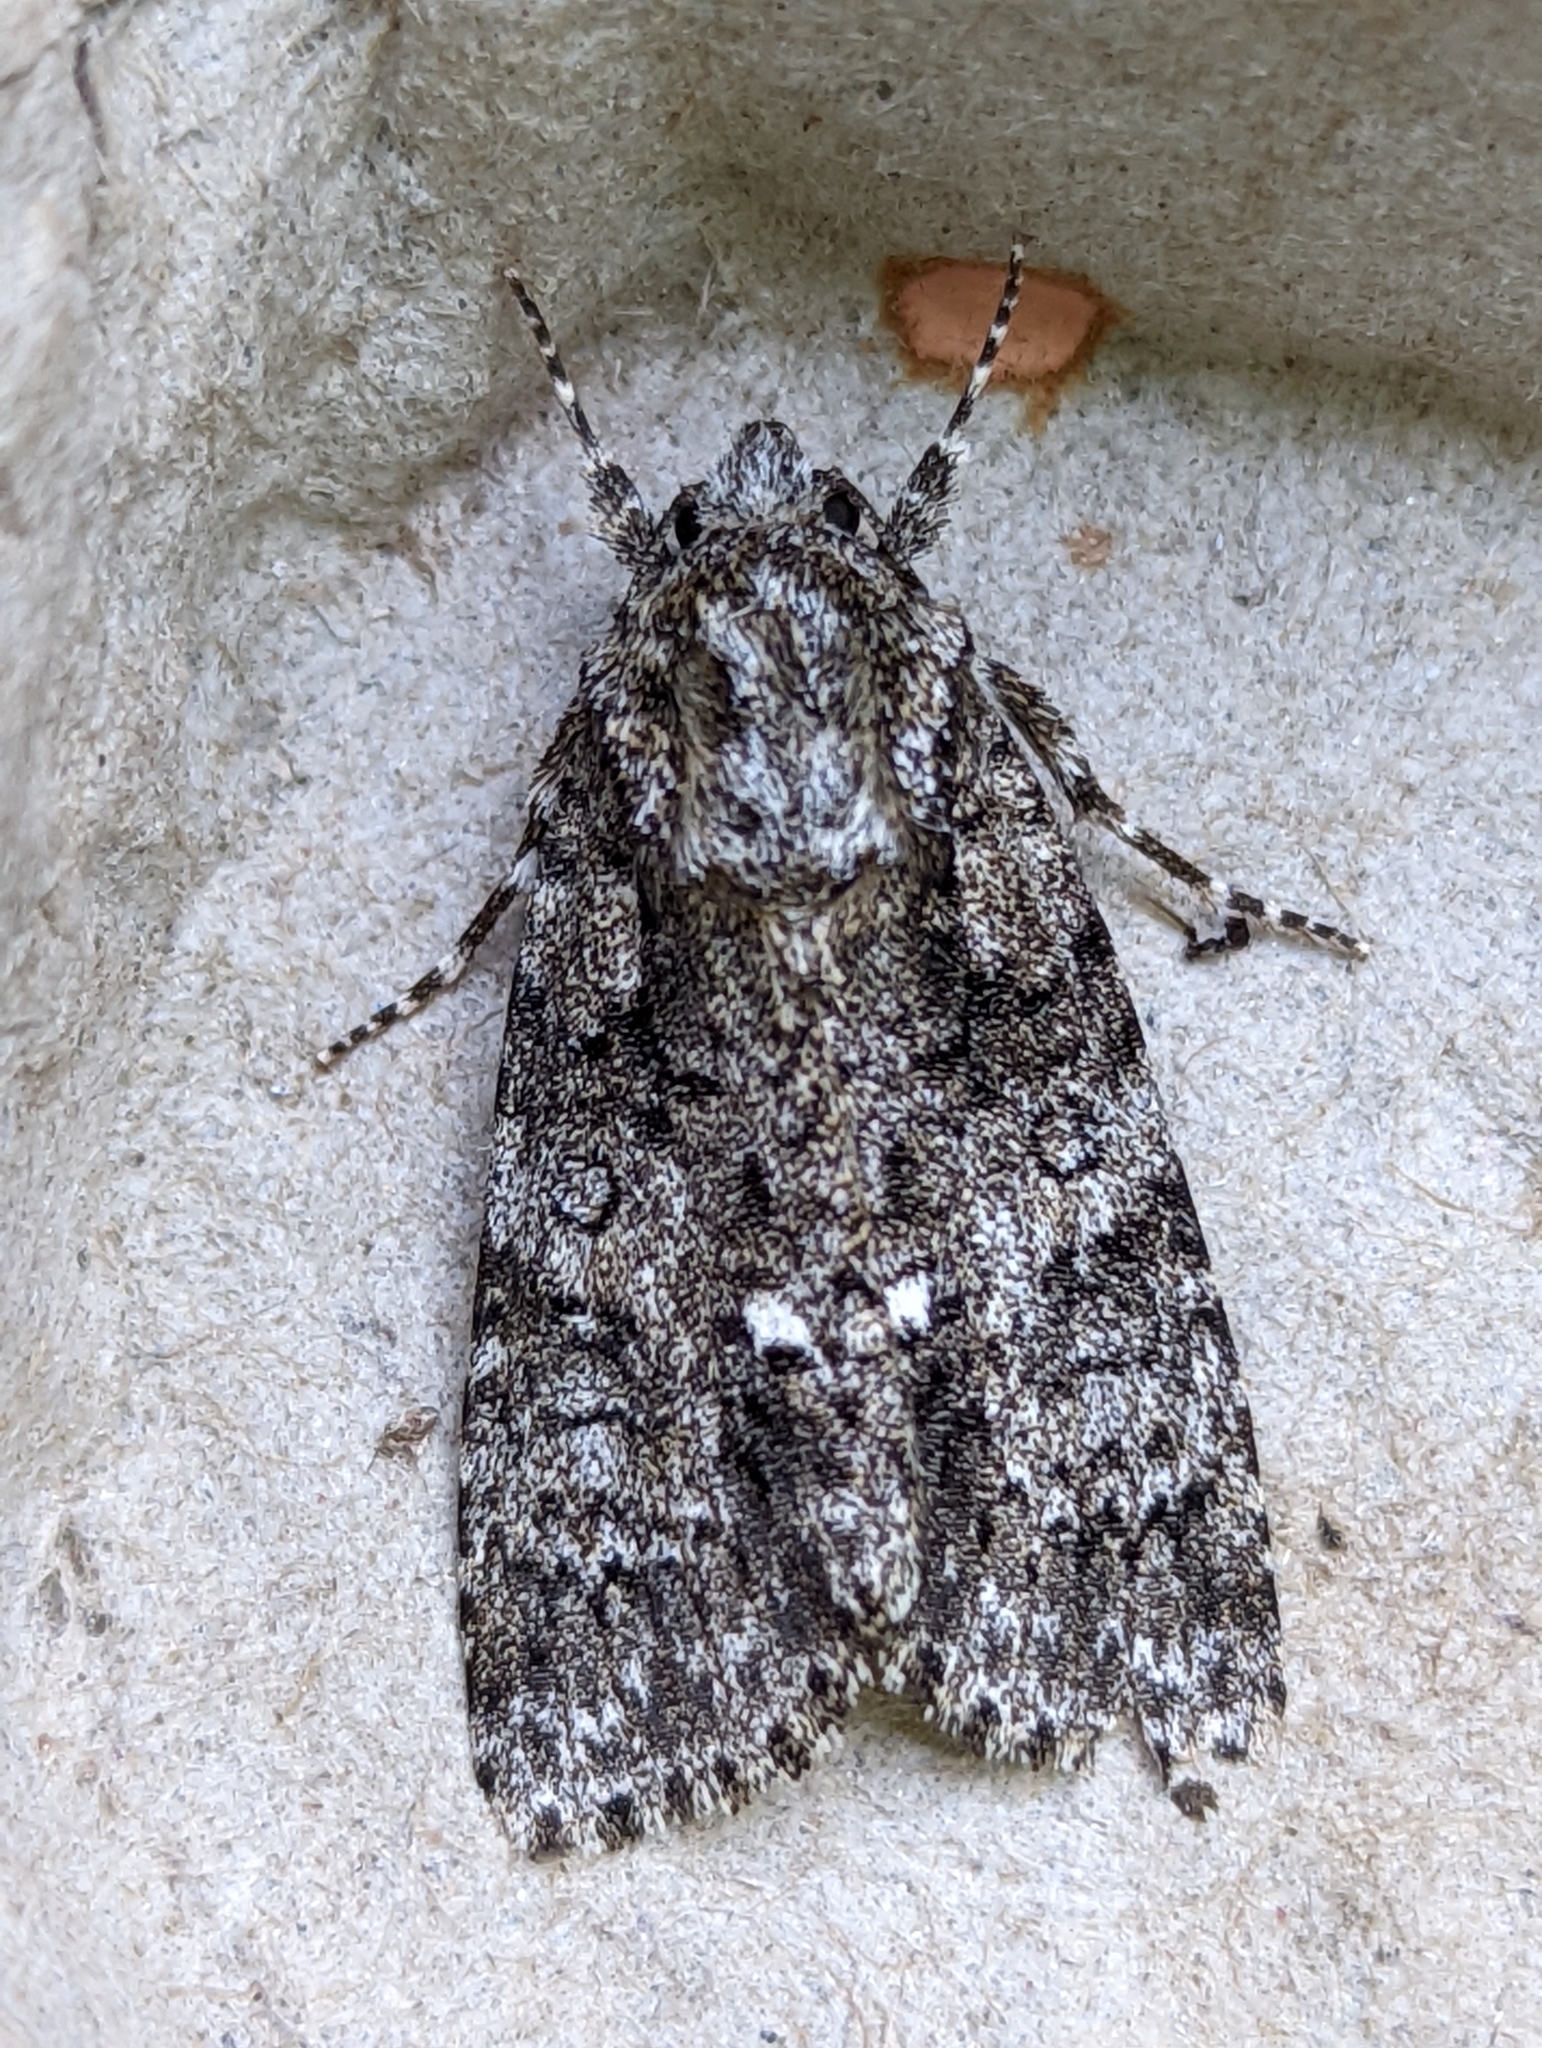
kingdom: Animalia
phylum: Arthropoda
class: Insecta
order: Lepidoptera
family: Noctuidae
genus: Acronicta
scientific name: Acronicta rumicis
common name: Knot grass
